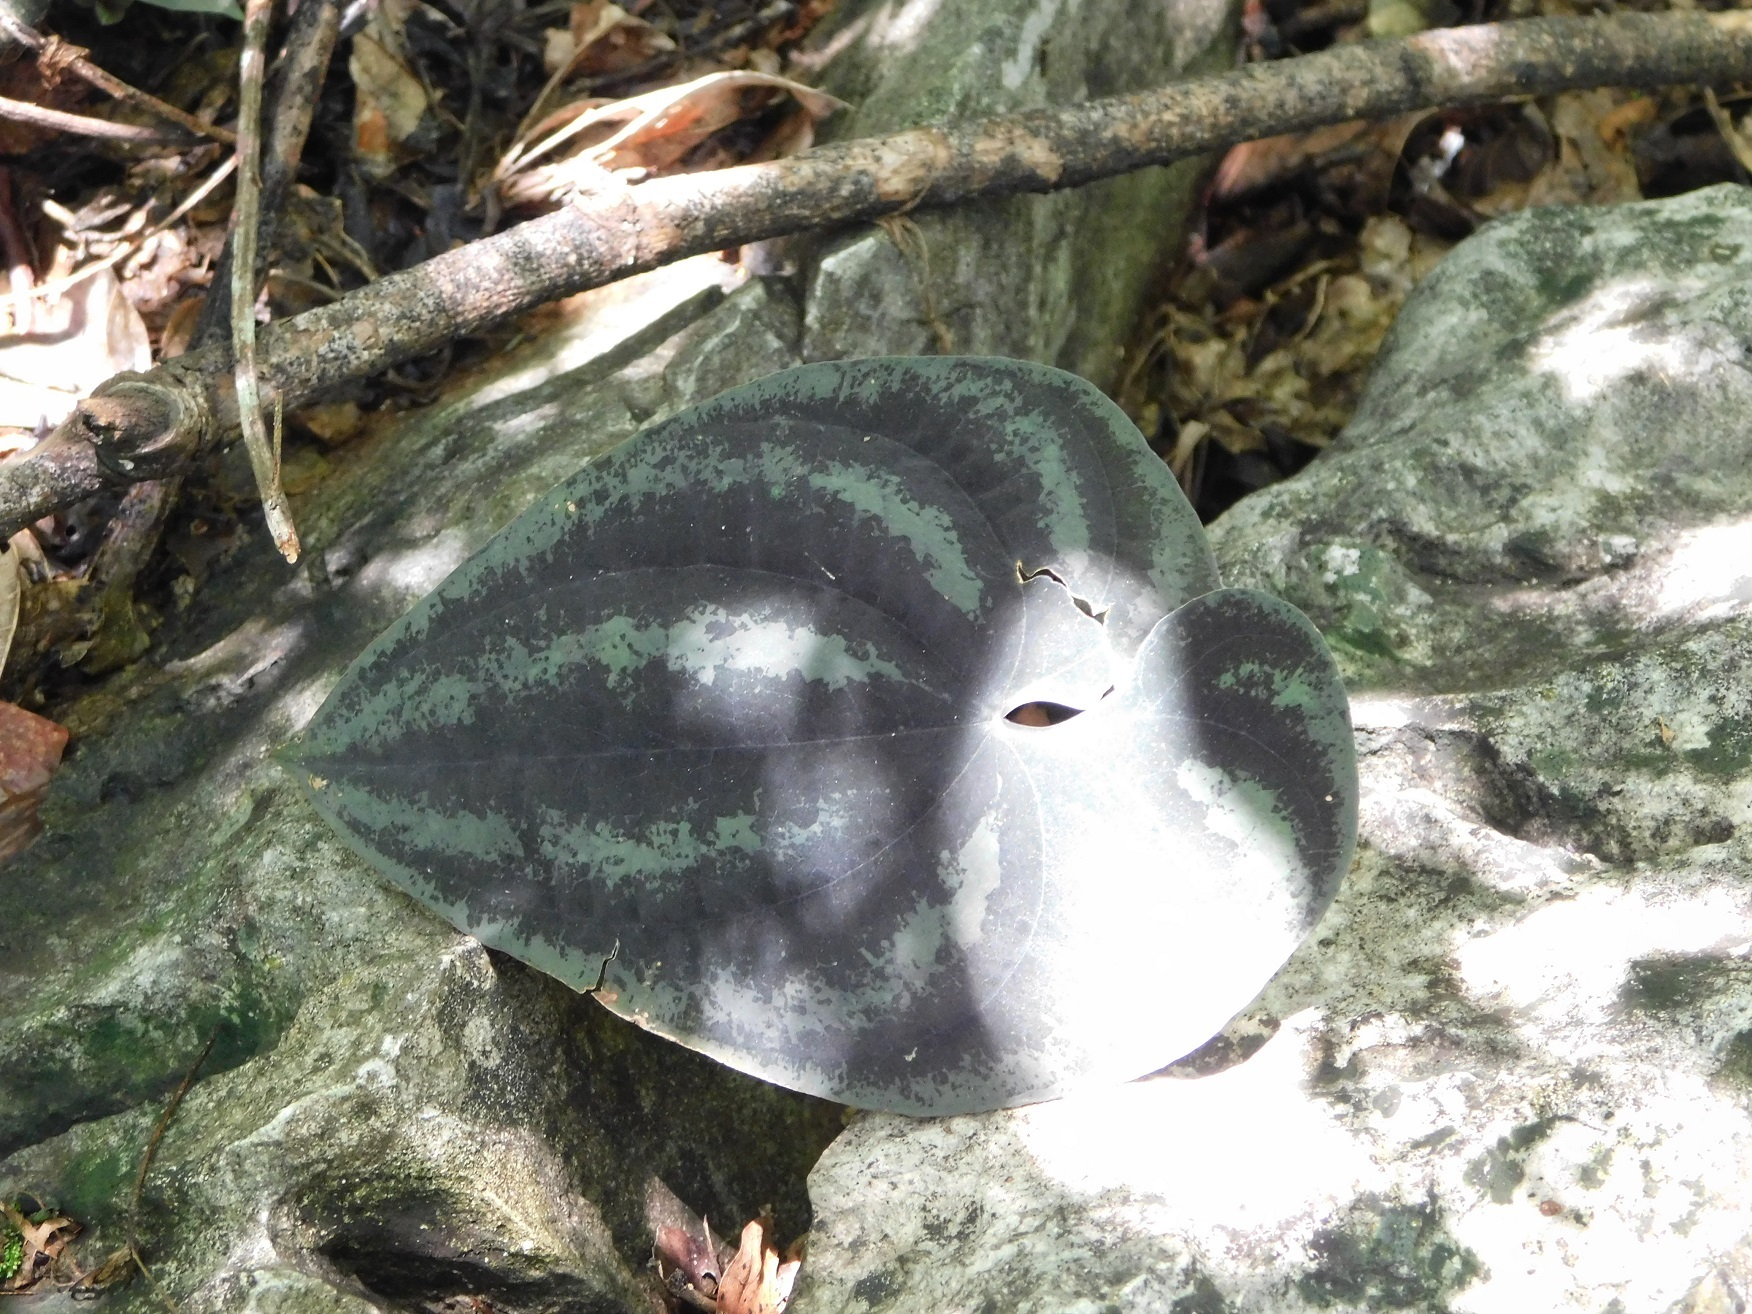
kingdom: Plantae
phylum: Tracheophyta
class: Liliopsida
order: Dioscoreales
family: Dioscoreaceae
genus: Dioscorea
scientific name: Dioscorea cyanisticta
